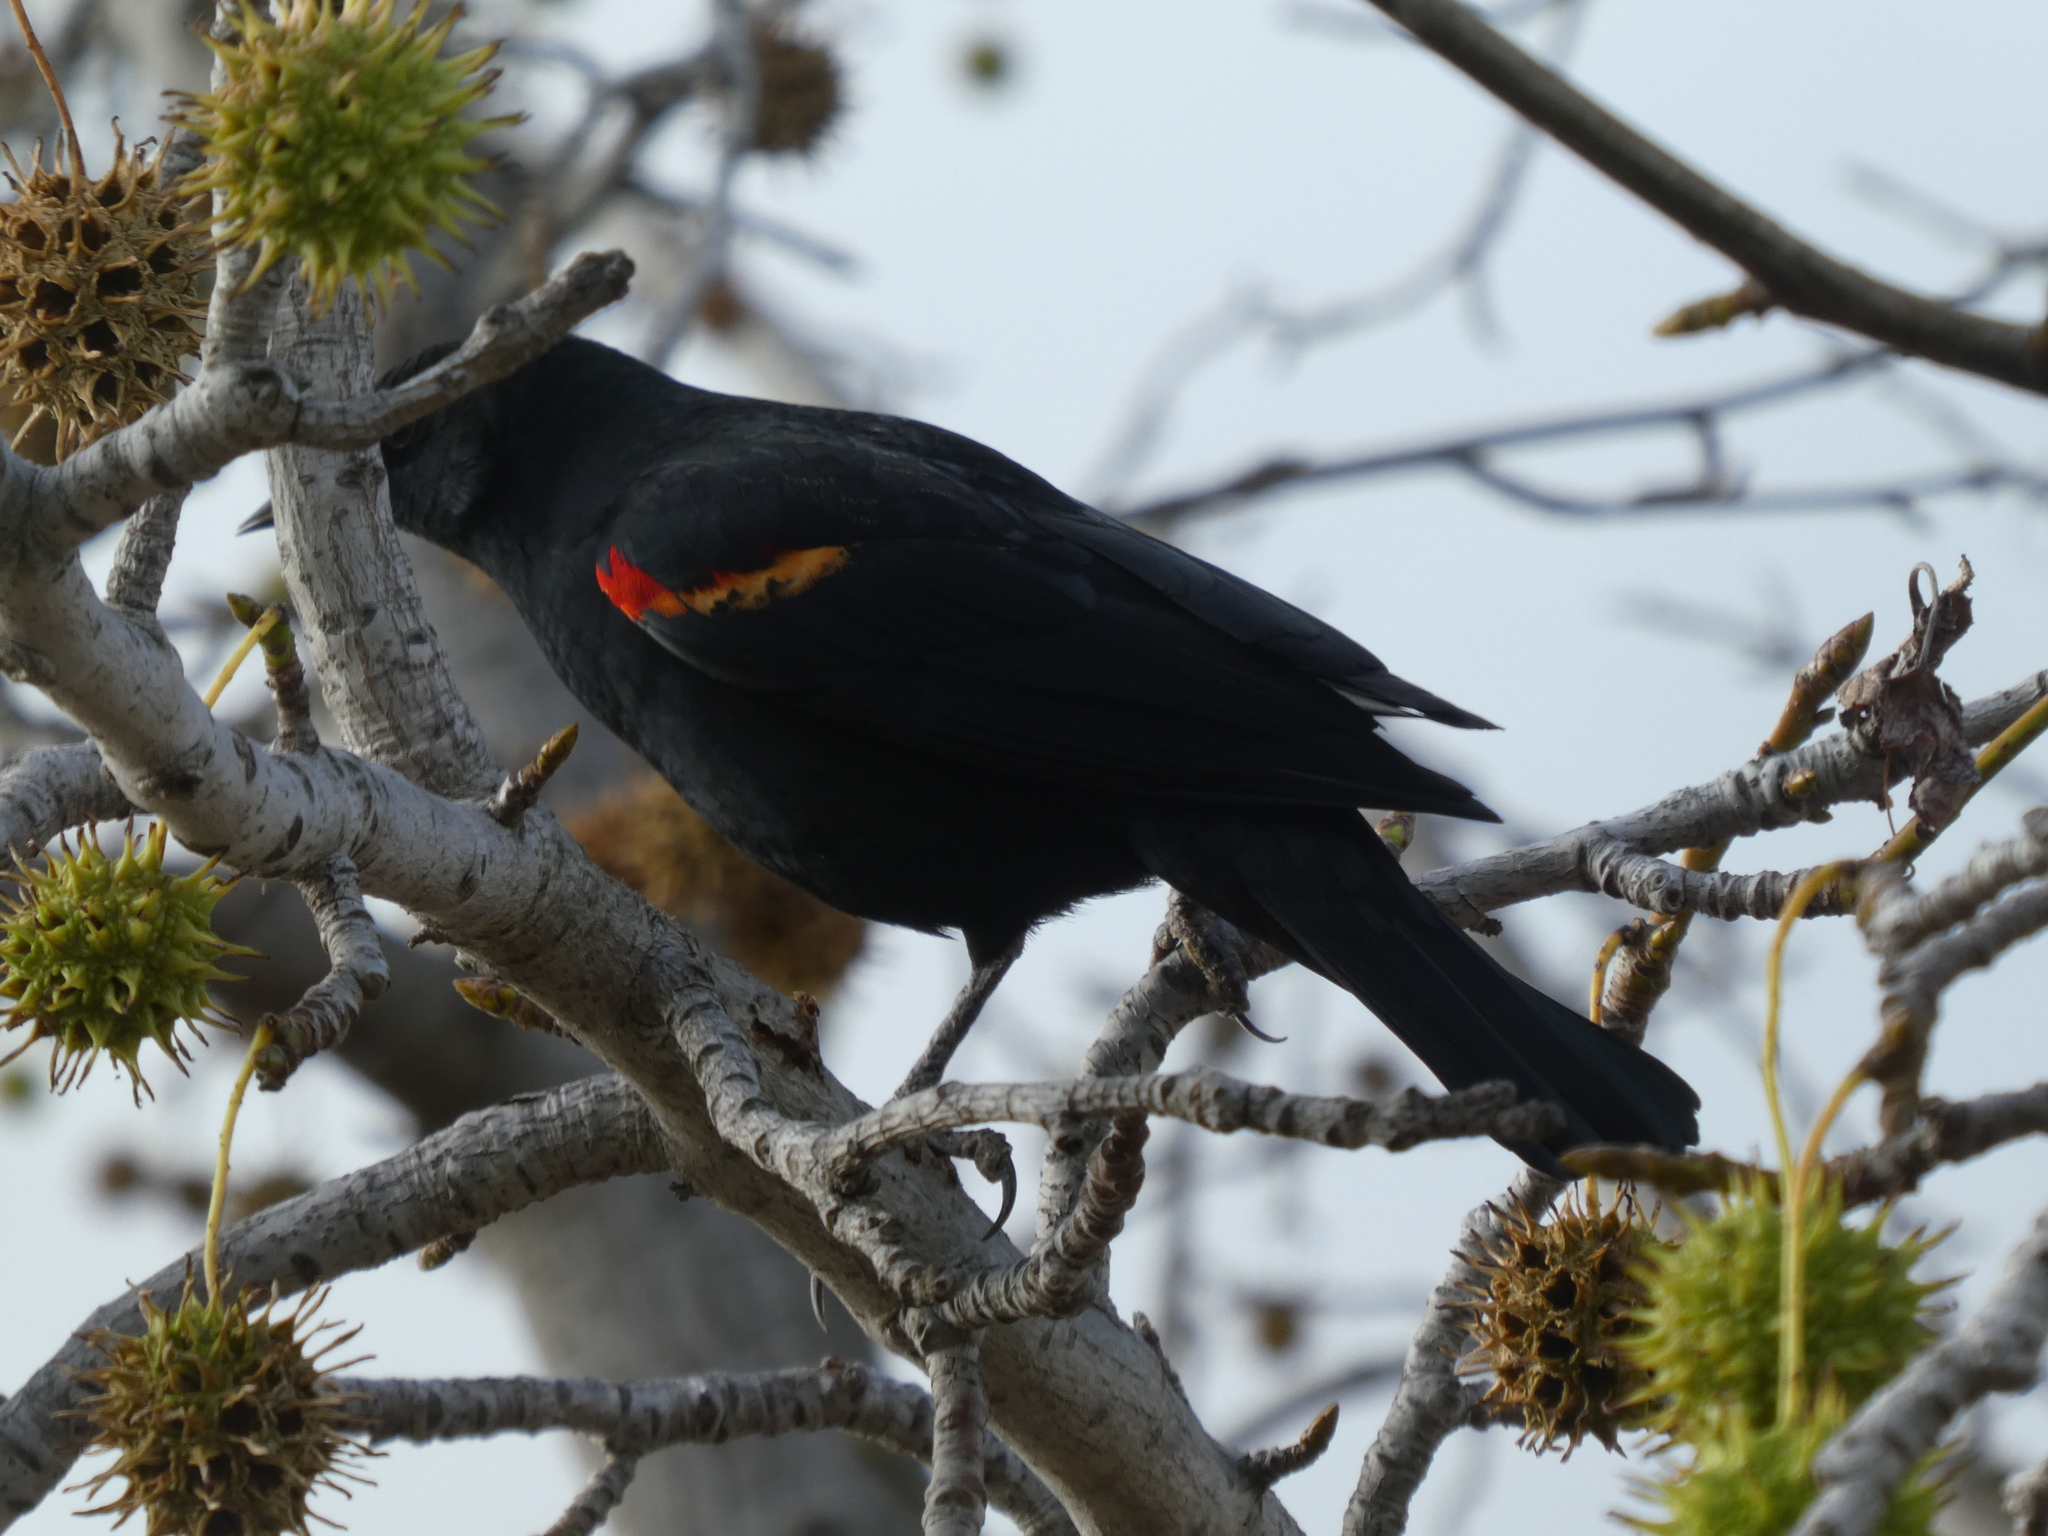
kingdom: Animalia
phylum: Chordata
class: Aves
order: Passeriformes
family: Icteridae
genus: Agelaius
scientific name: Agelaius phoeniceus
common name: Red-winged blackbird
